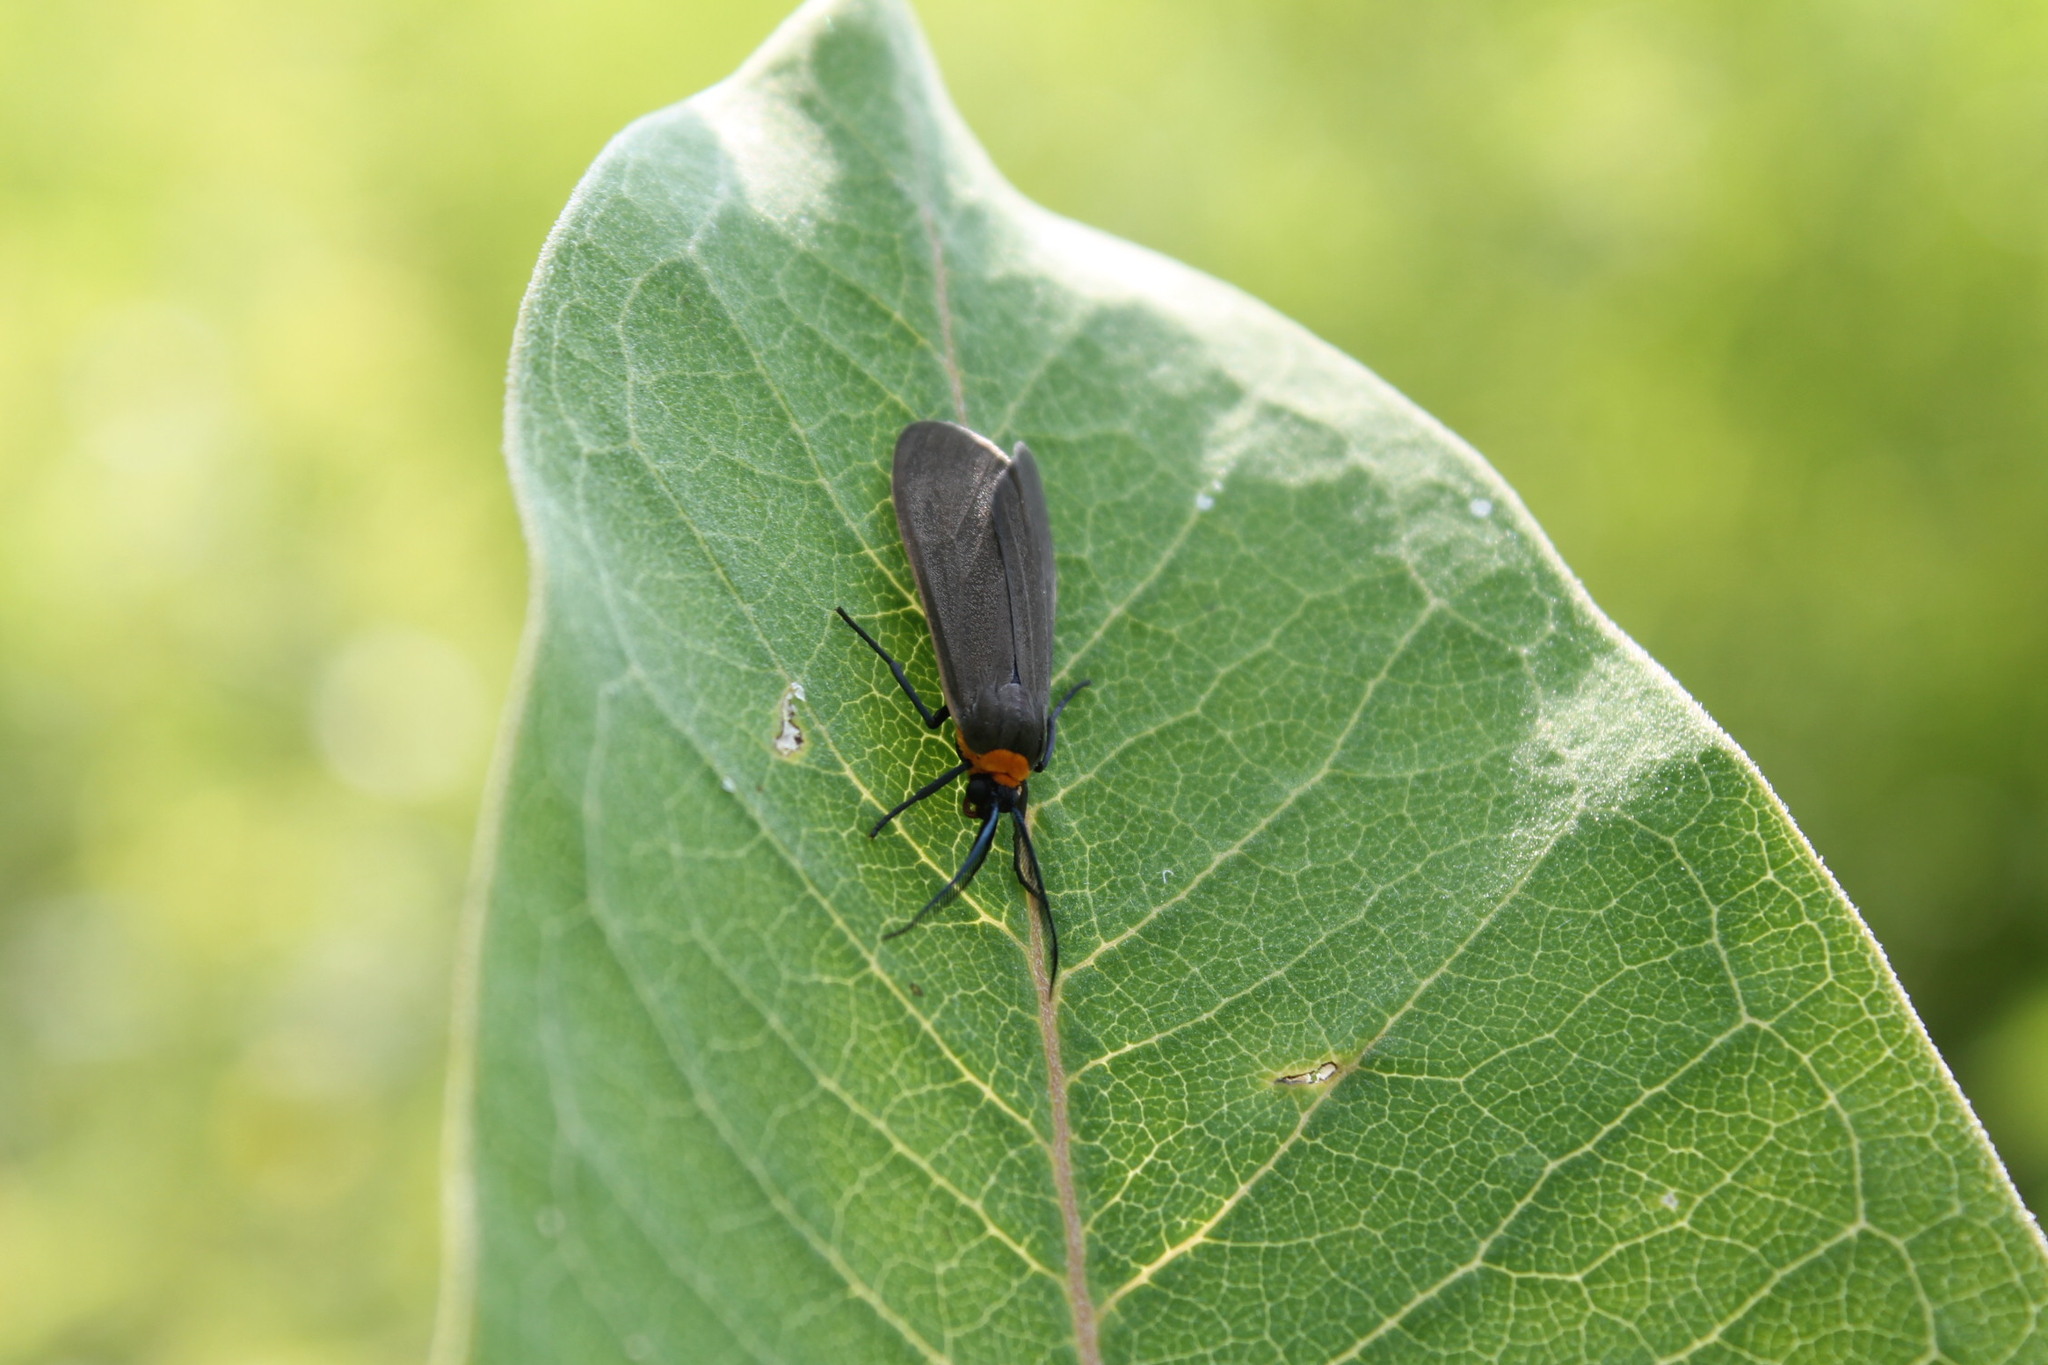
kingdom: Animalia
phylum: Arthropoda
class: Insecta
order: Lepidoptera
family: Erebidae
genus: Cisseps
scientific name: Cisseps fulvicollis
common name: Yellow-collared scape moth
